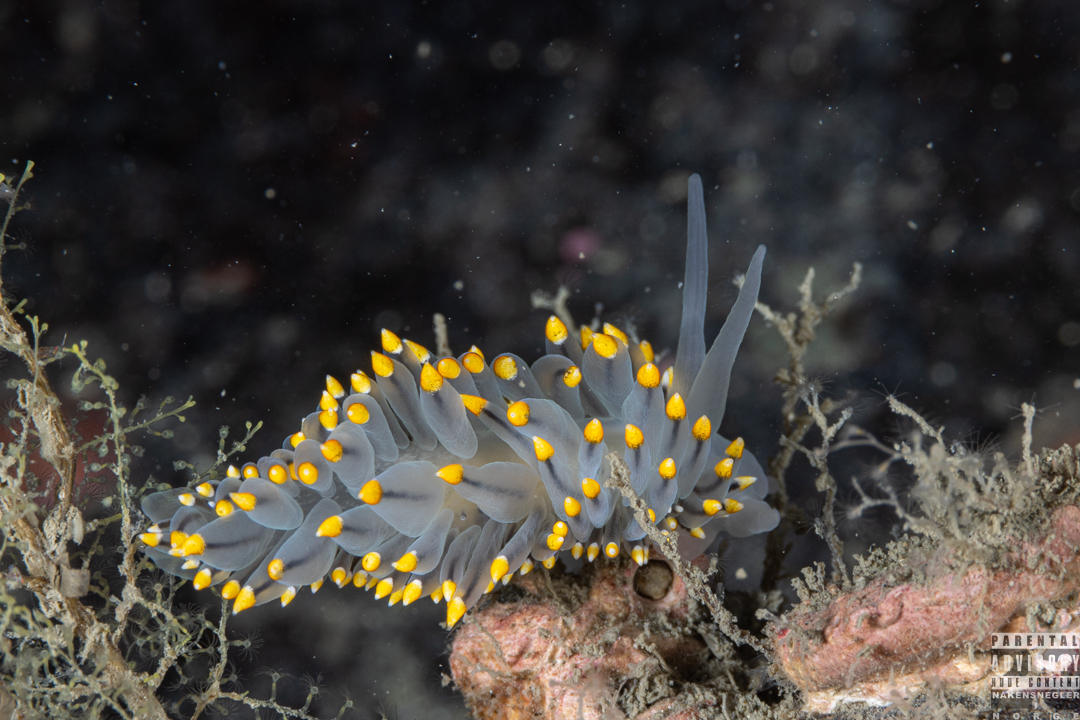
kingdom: Animalia
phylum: Mollusca
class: Gastropoda
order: Nudibranchia
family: Eubranchidae
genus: Eubranchus
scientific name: Eubranchus tricolor
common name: Painted balloon aeolis
